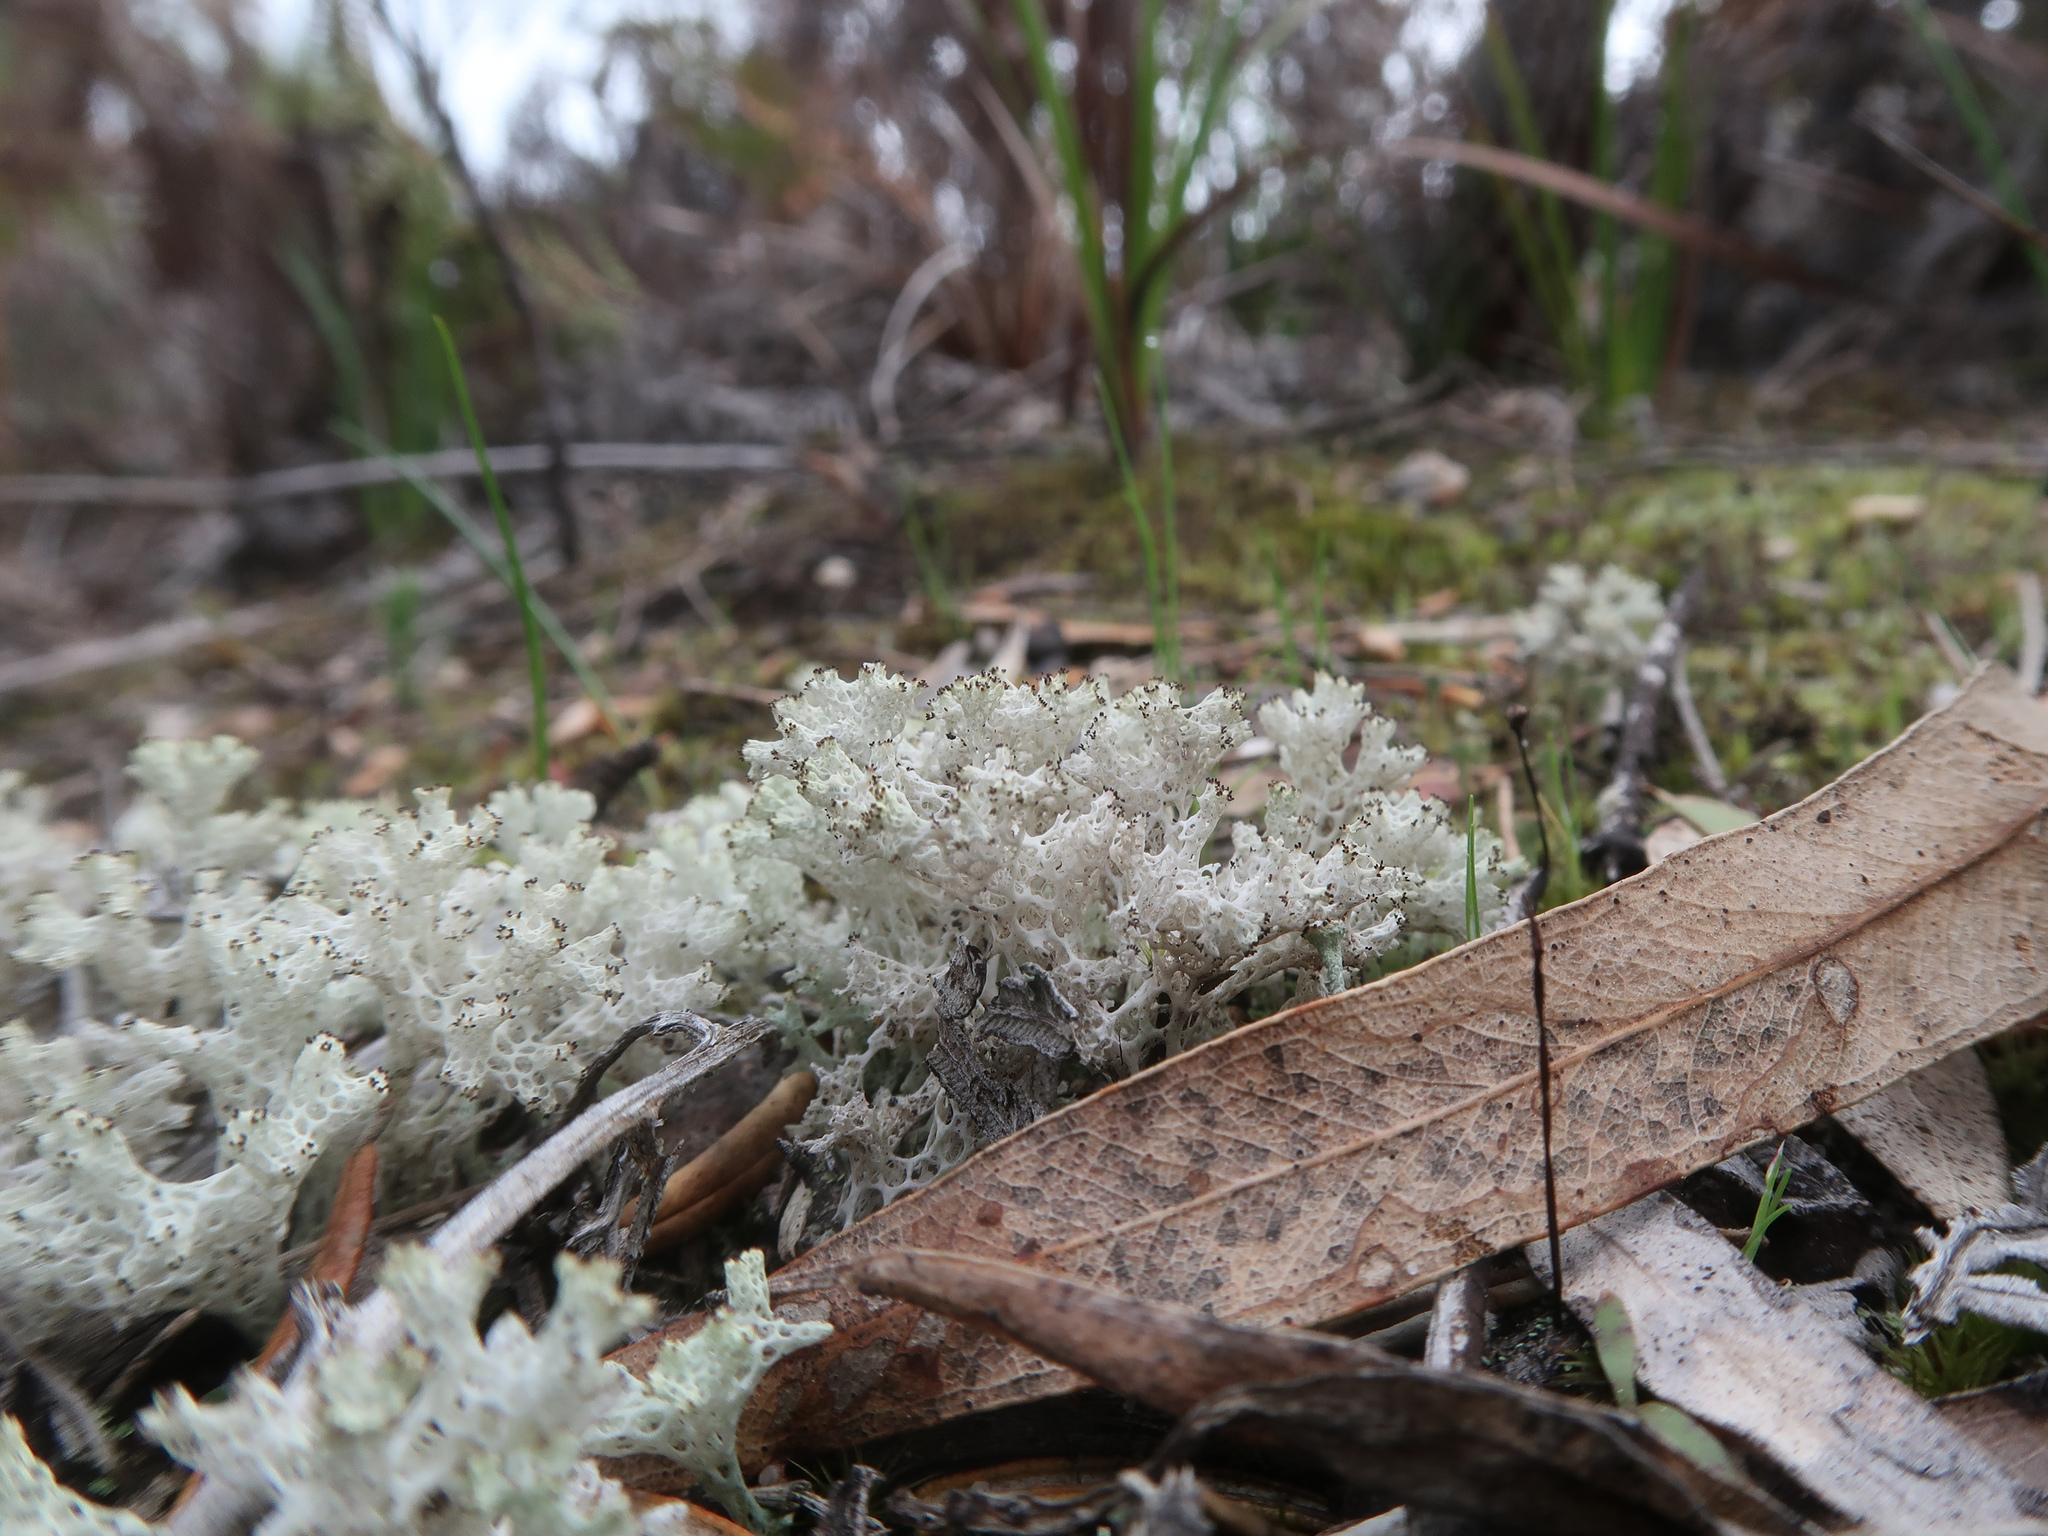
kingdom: Fungi
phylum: Ascomycota
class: Lecanoromycetes
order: Lecanorales
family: Cladoniaceae
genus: Pulchrocladia
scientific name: Pulchrocladia retipora
